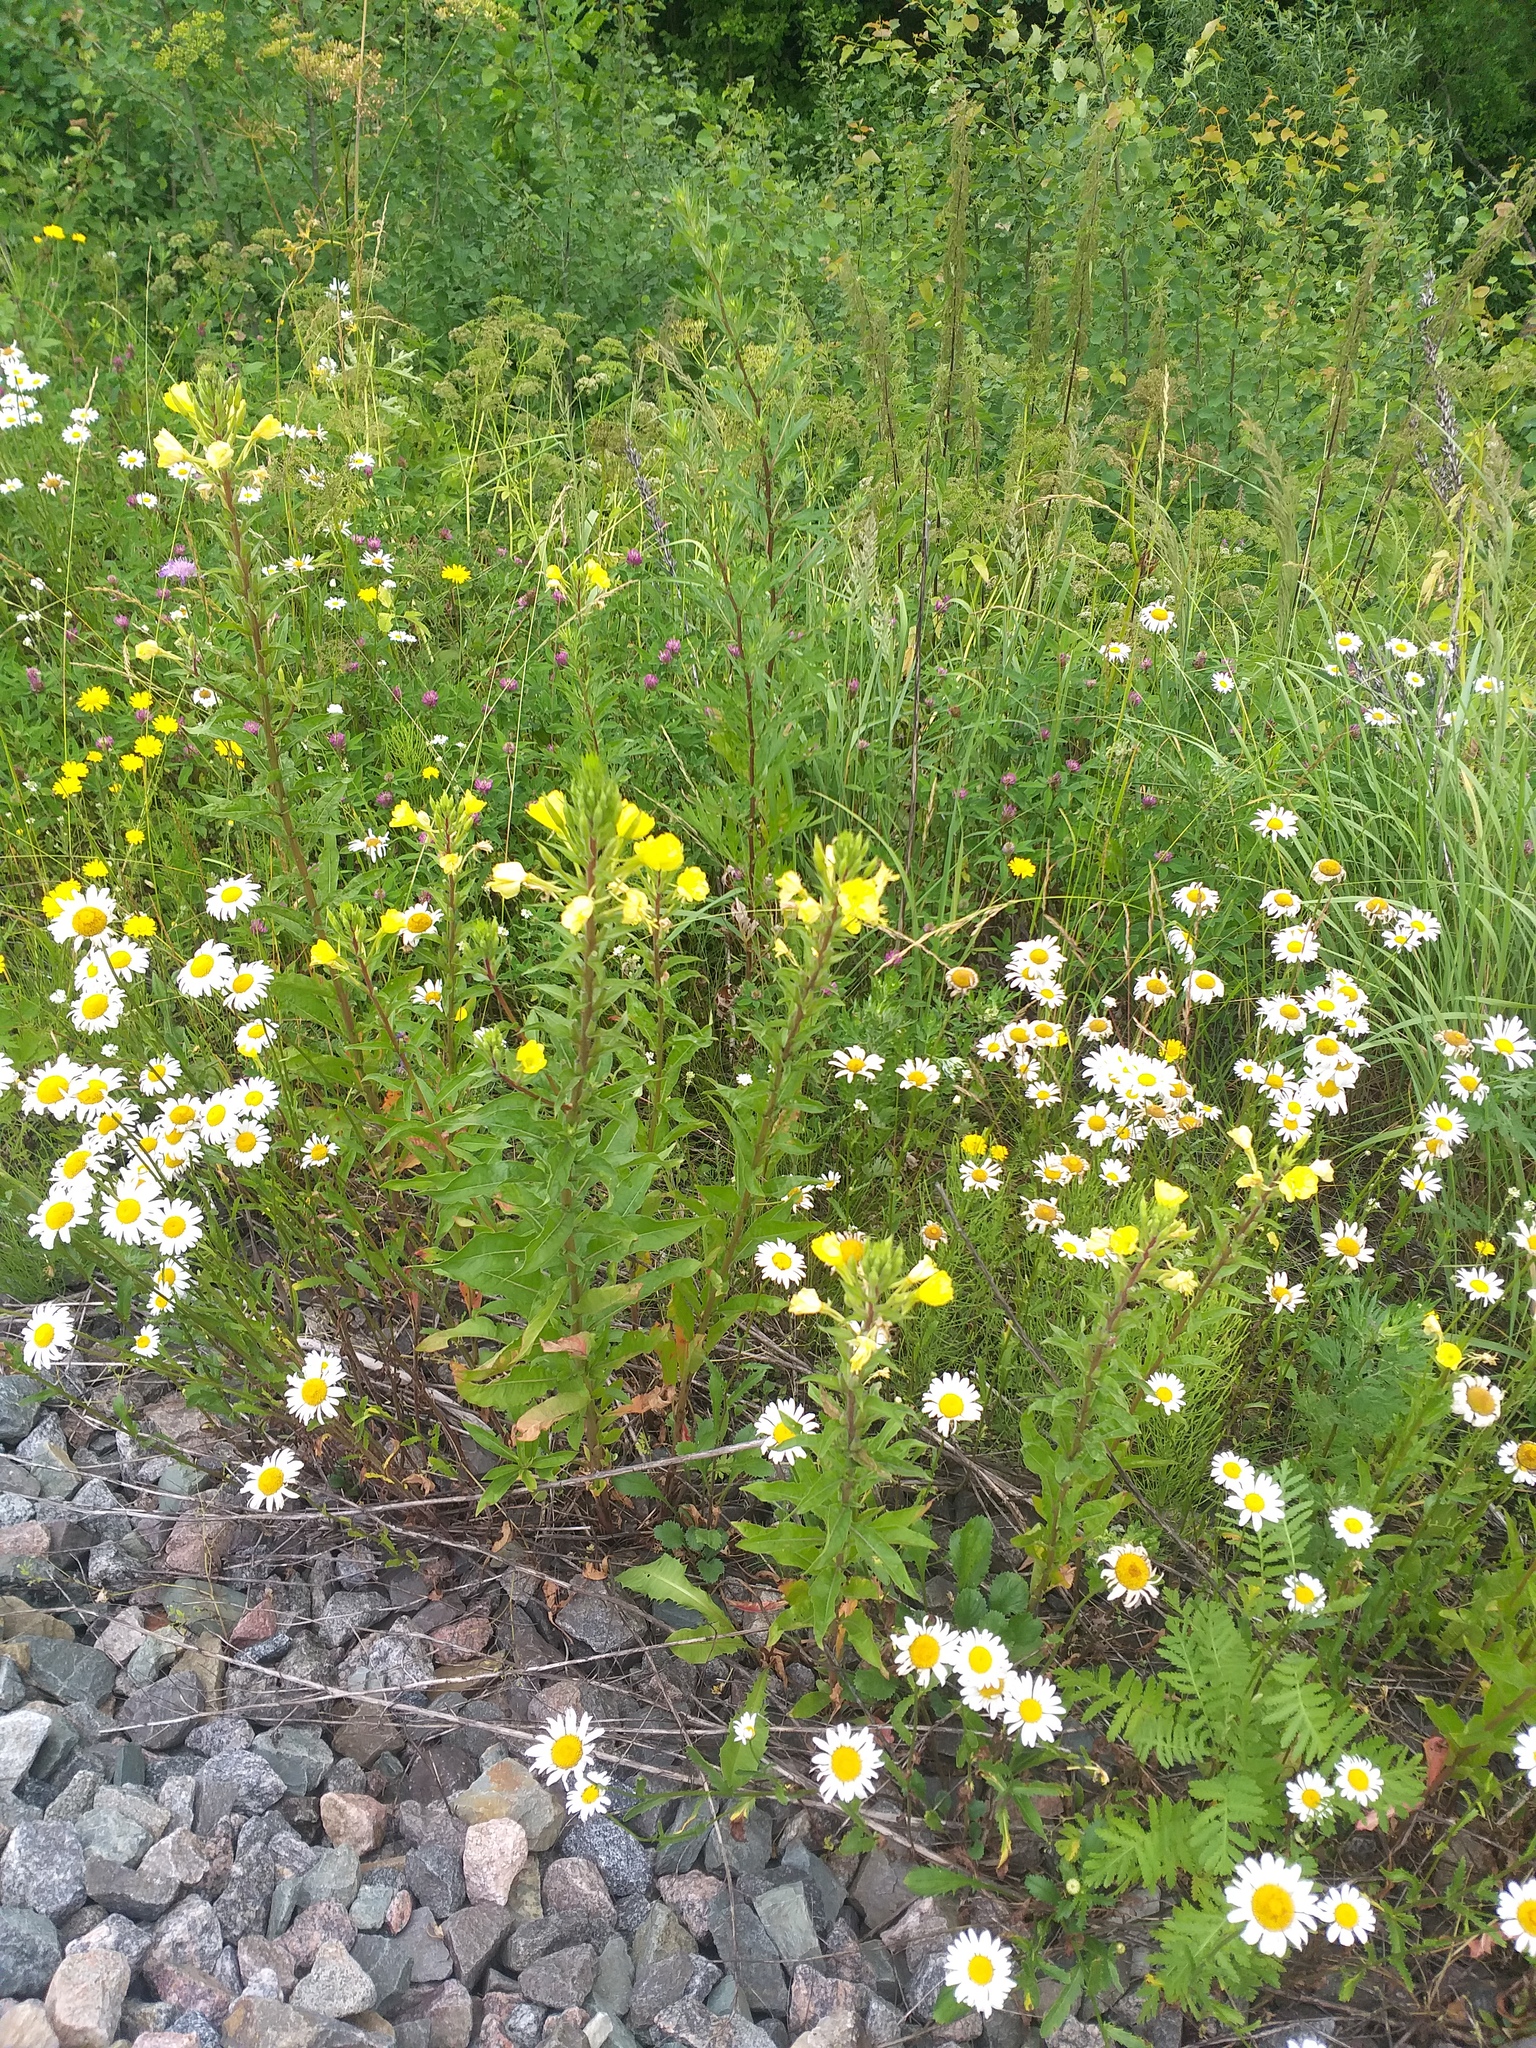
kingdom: Plantae
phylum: Tracheophyta
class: Magnoliopsida
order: Myrtales
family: Onagraceae
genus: Oenothera
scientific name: Oenothera rubricaulis
